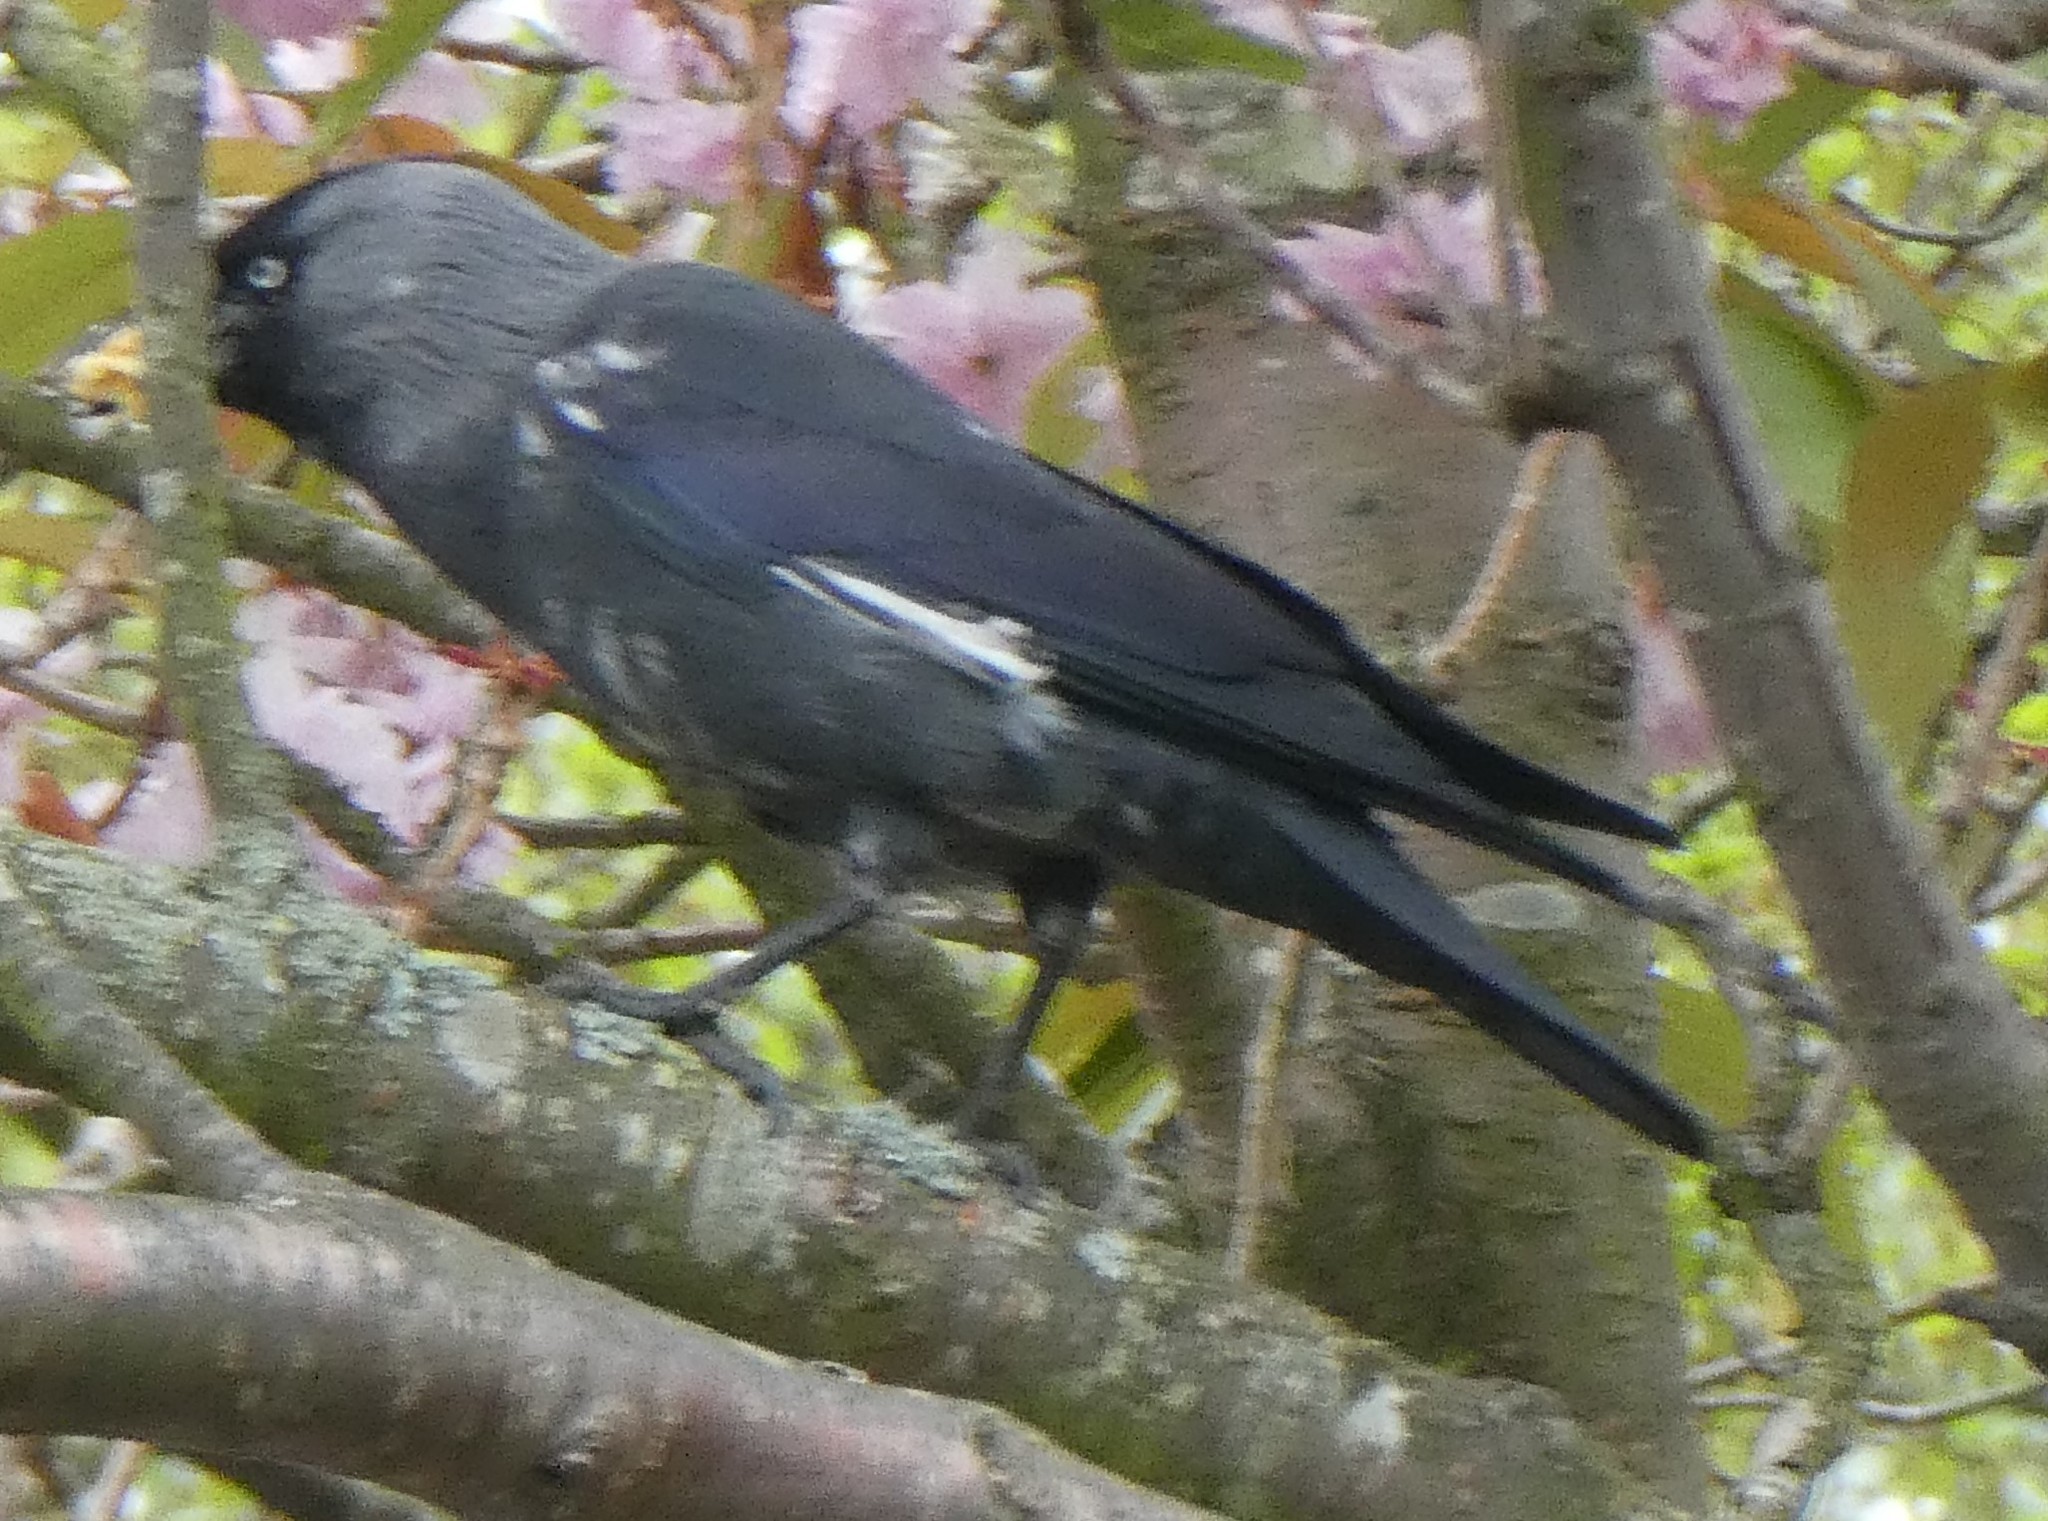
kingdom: Animalia
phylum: Chordata
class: Aves
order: Passeriformes
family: Corvidae
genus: Coloeus
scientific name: Coloeus monedula
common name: Western jackdaw
